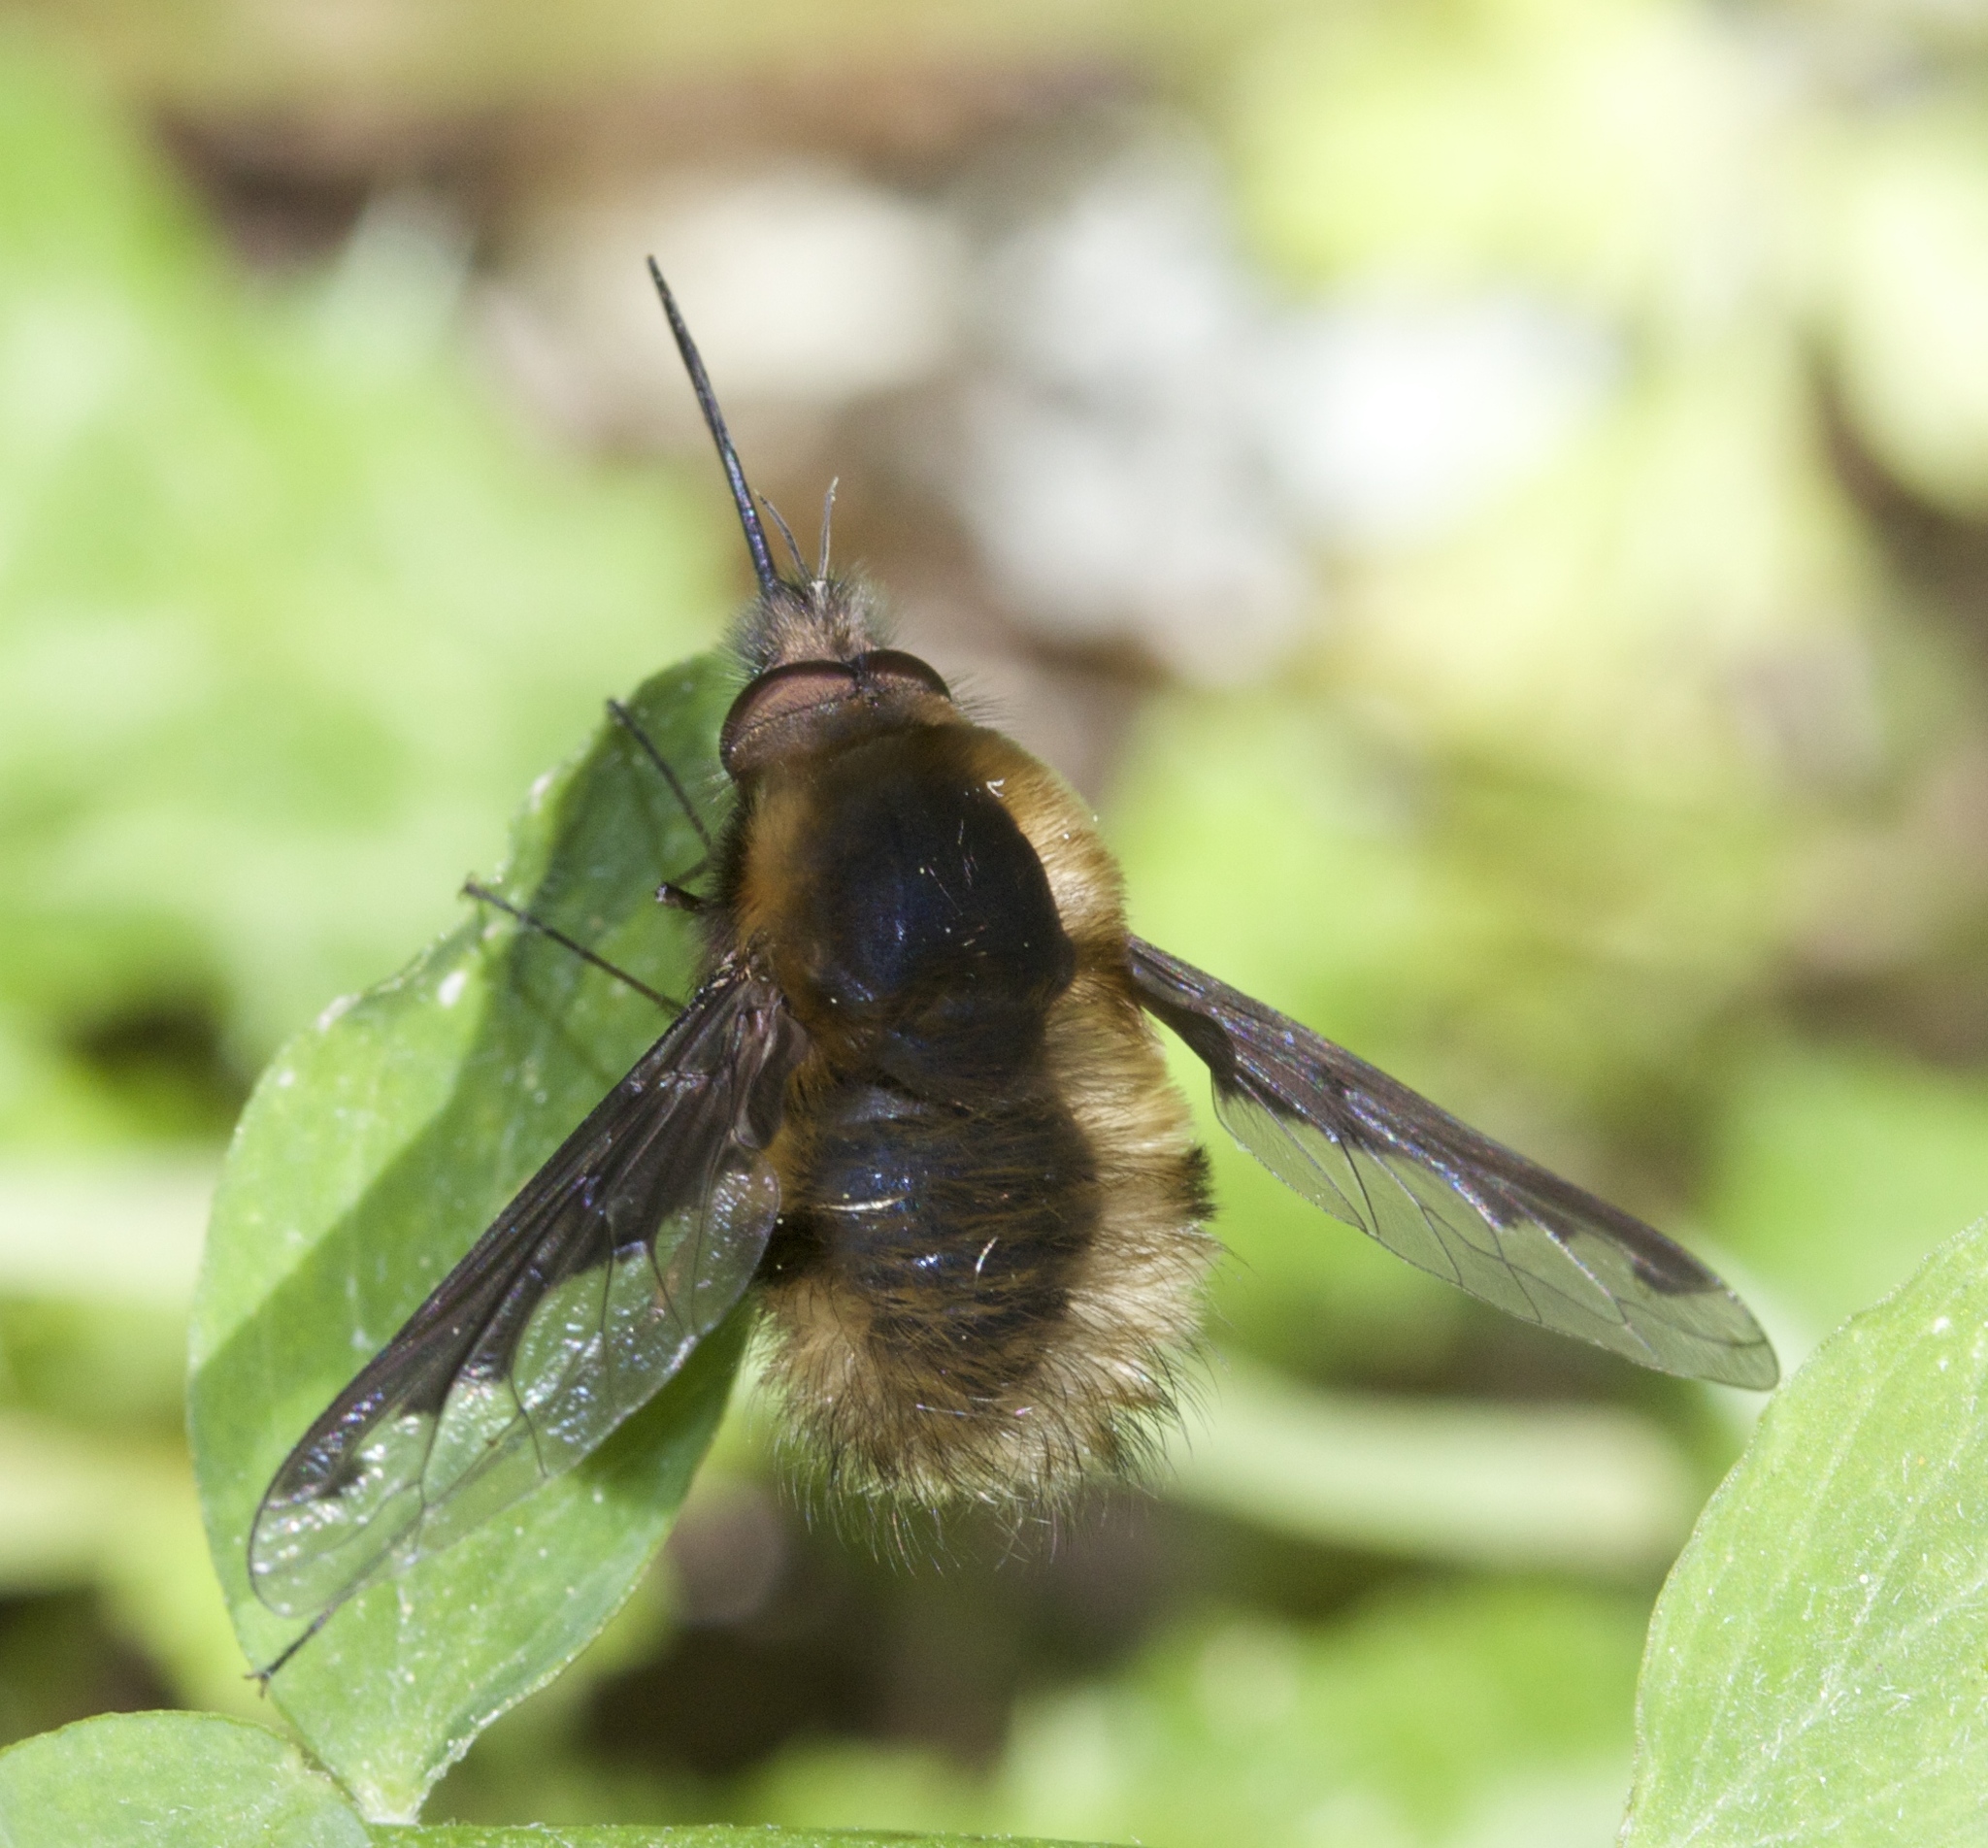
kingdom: Animalia
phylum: Arthropoda
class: Insecta
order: Diptera
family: Bombyliidae
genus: Bombylius
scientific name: Bombylius major
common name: Bee fly
